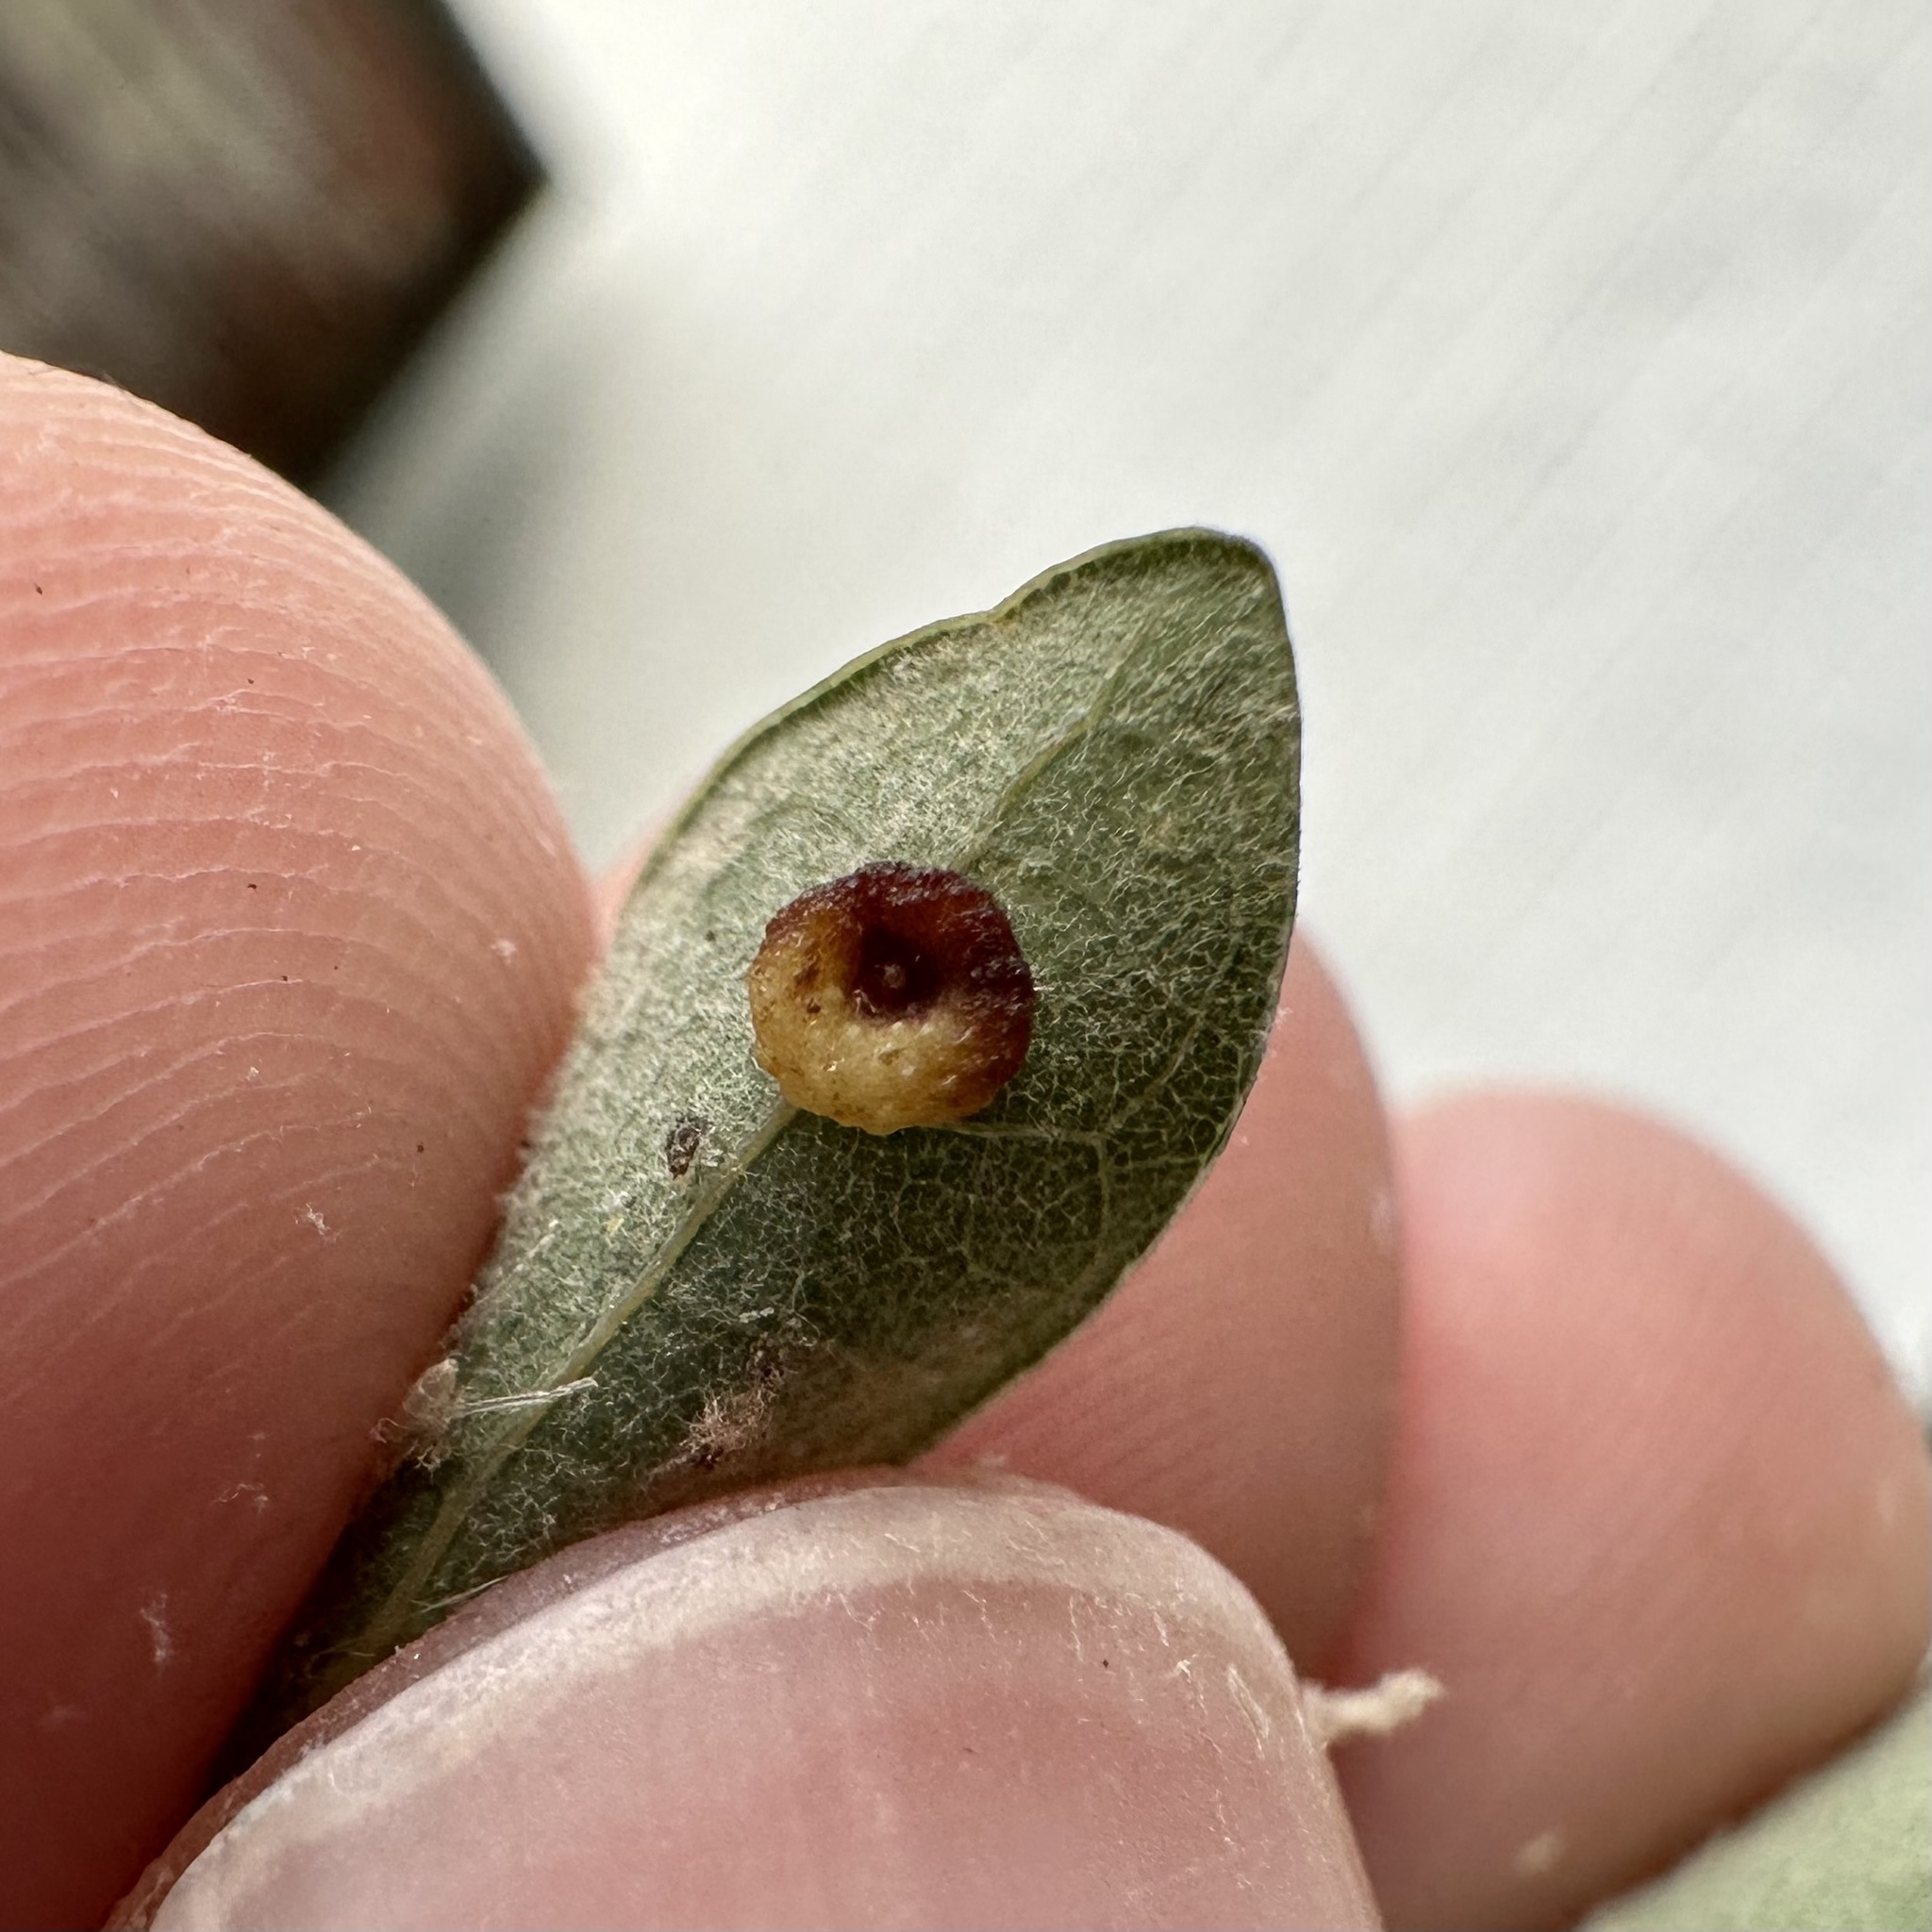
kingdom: Animalia
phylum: Arthropoda
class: Insecta
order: Hymenoptera
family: Cynipidae
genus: Andricus
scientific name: Andricus
